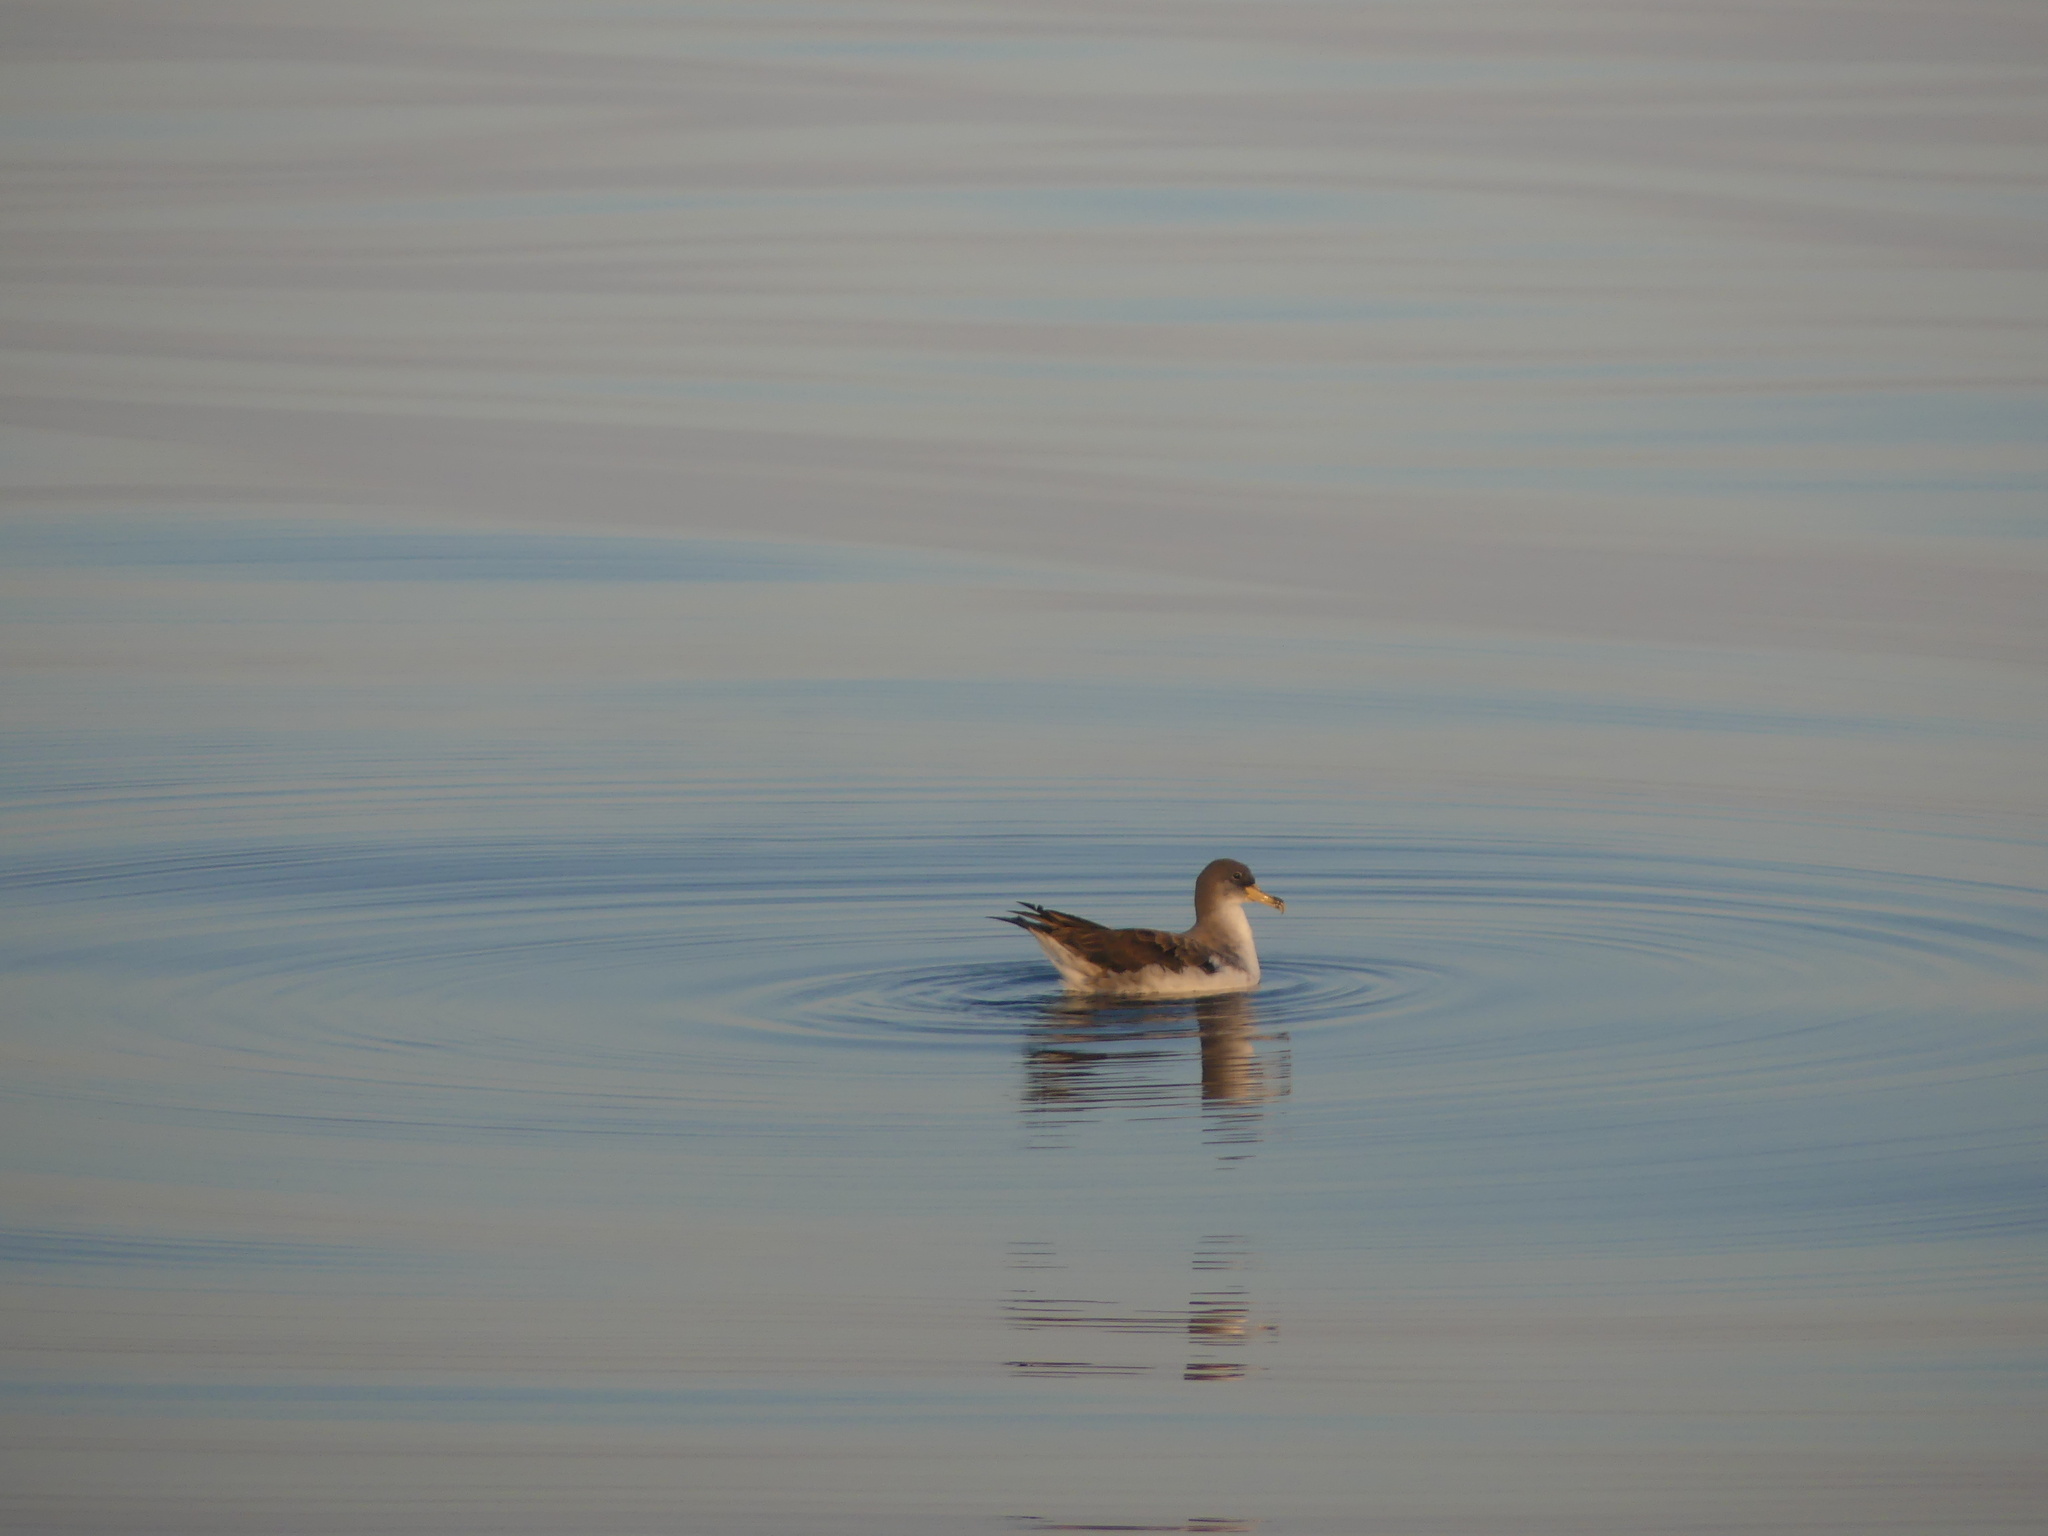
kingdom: Animalia
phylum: Chordata
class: Aves
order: Procellariiformes
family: Procellariidae
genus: Calonectris
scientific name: Calonectris diomedea
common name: Cory's shearwater
